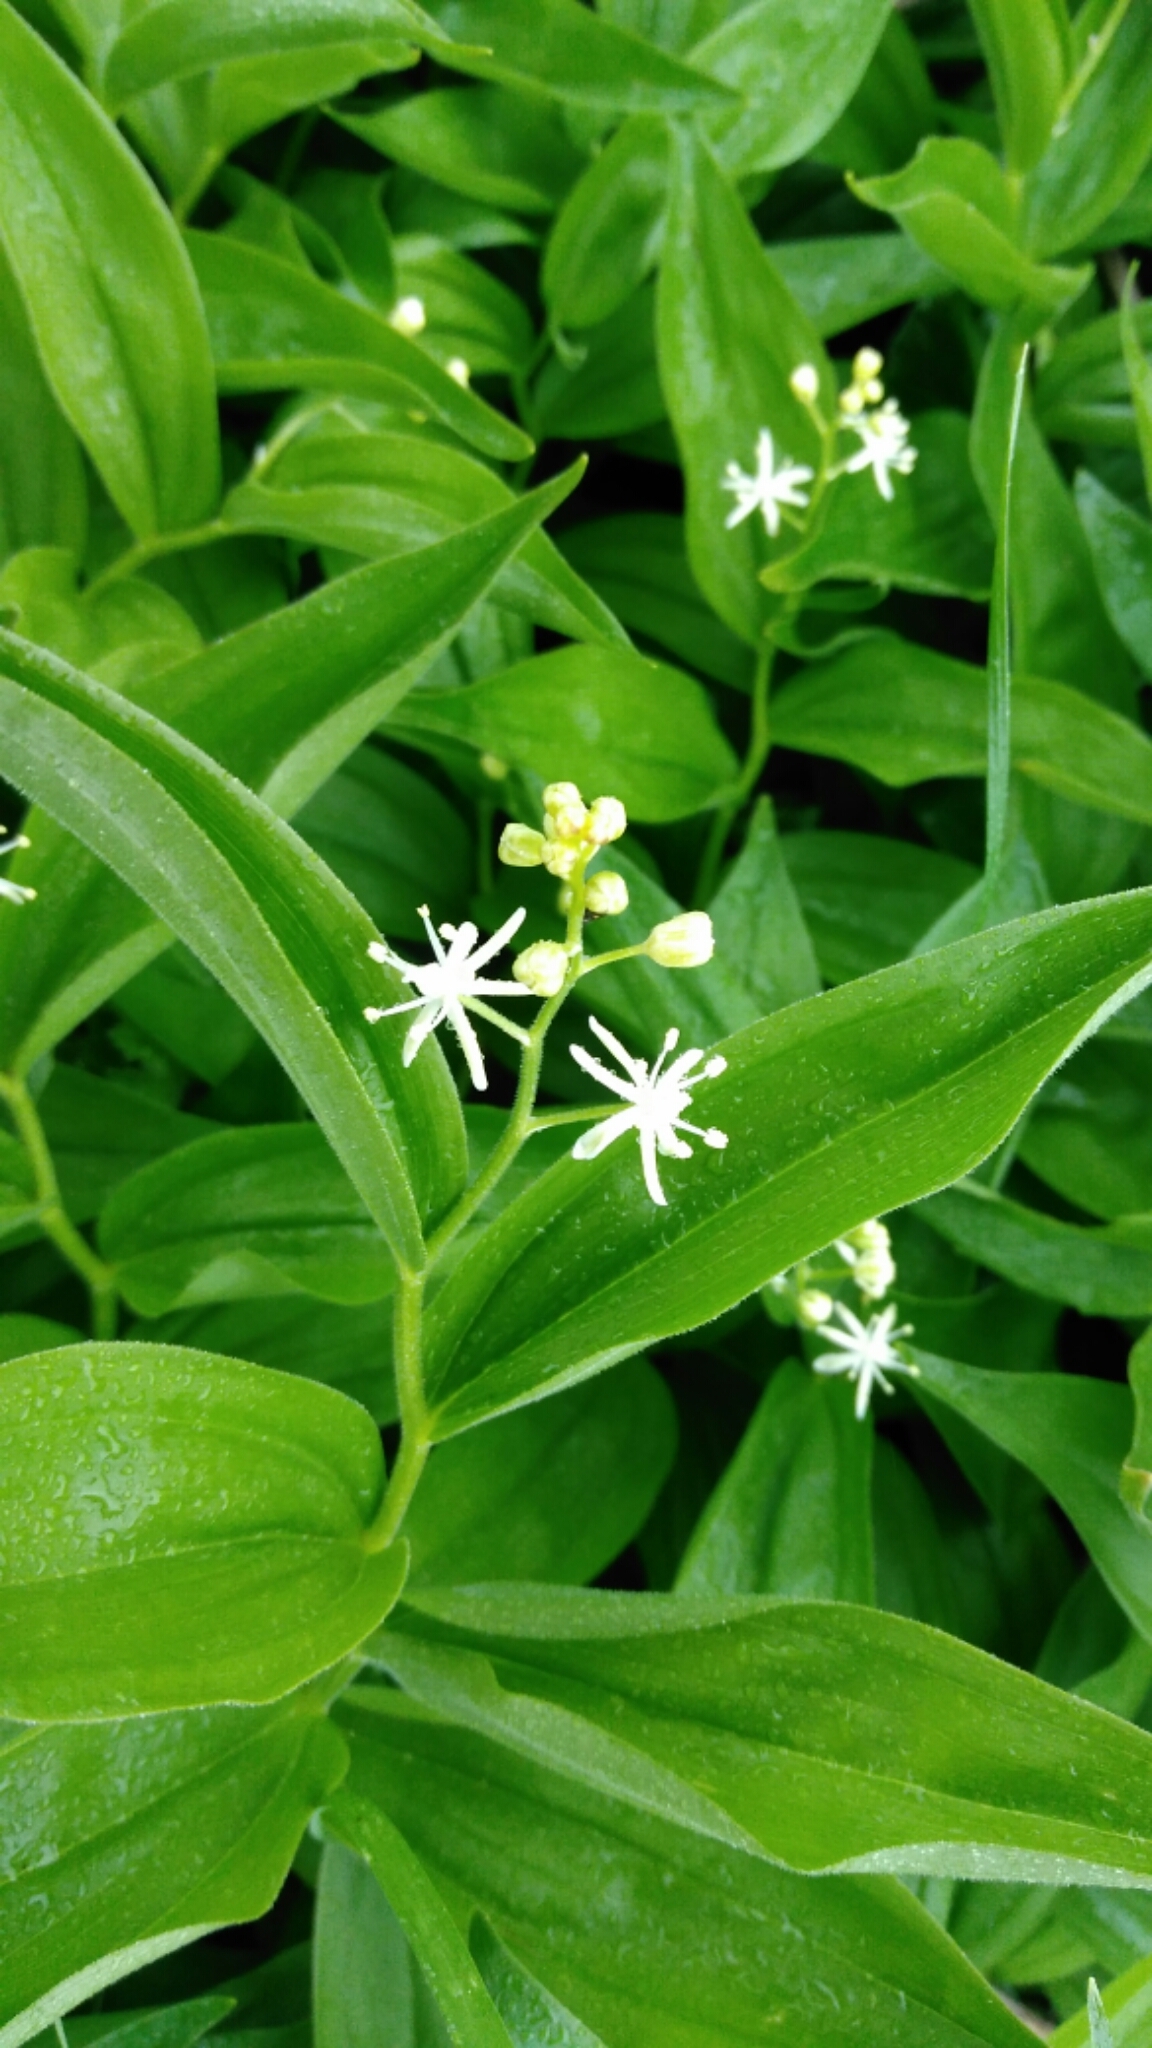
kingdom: Plantae
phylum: Tracheophyta
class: Liliopsida
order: Asparagales
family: Asparagaceae
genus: Maianthemum
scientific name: Maianthemum stellatum
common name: Little false solomon's seal
